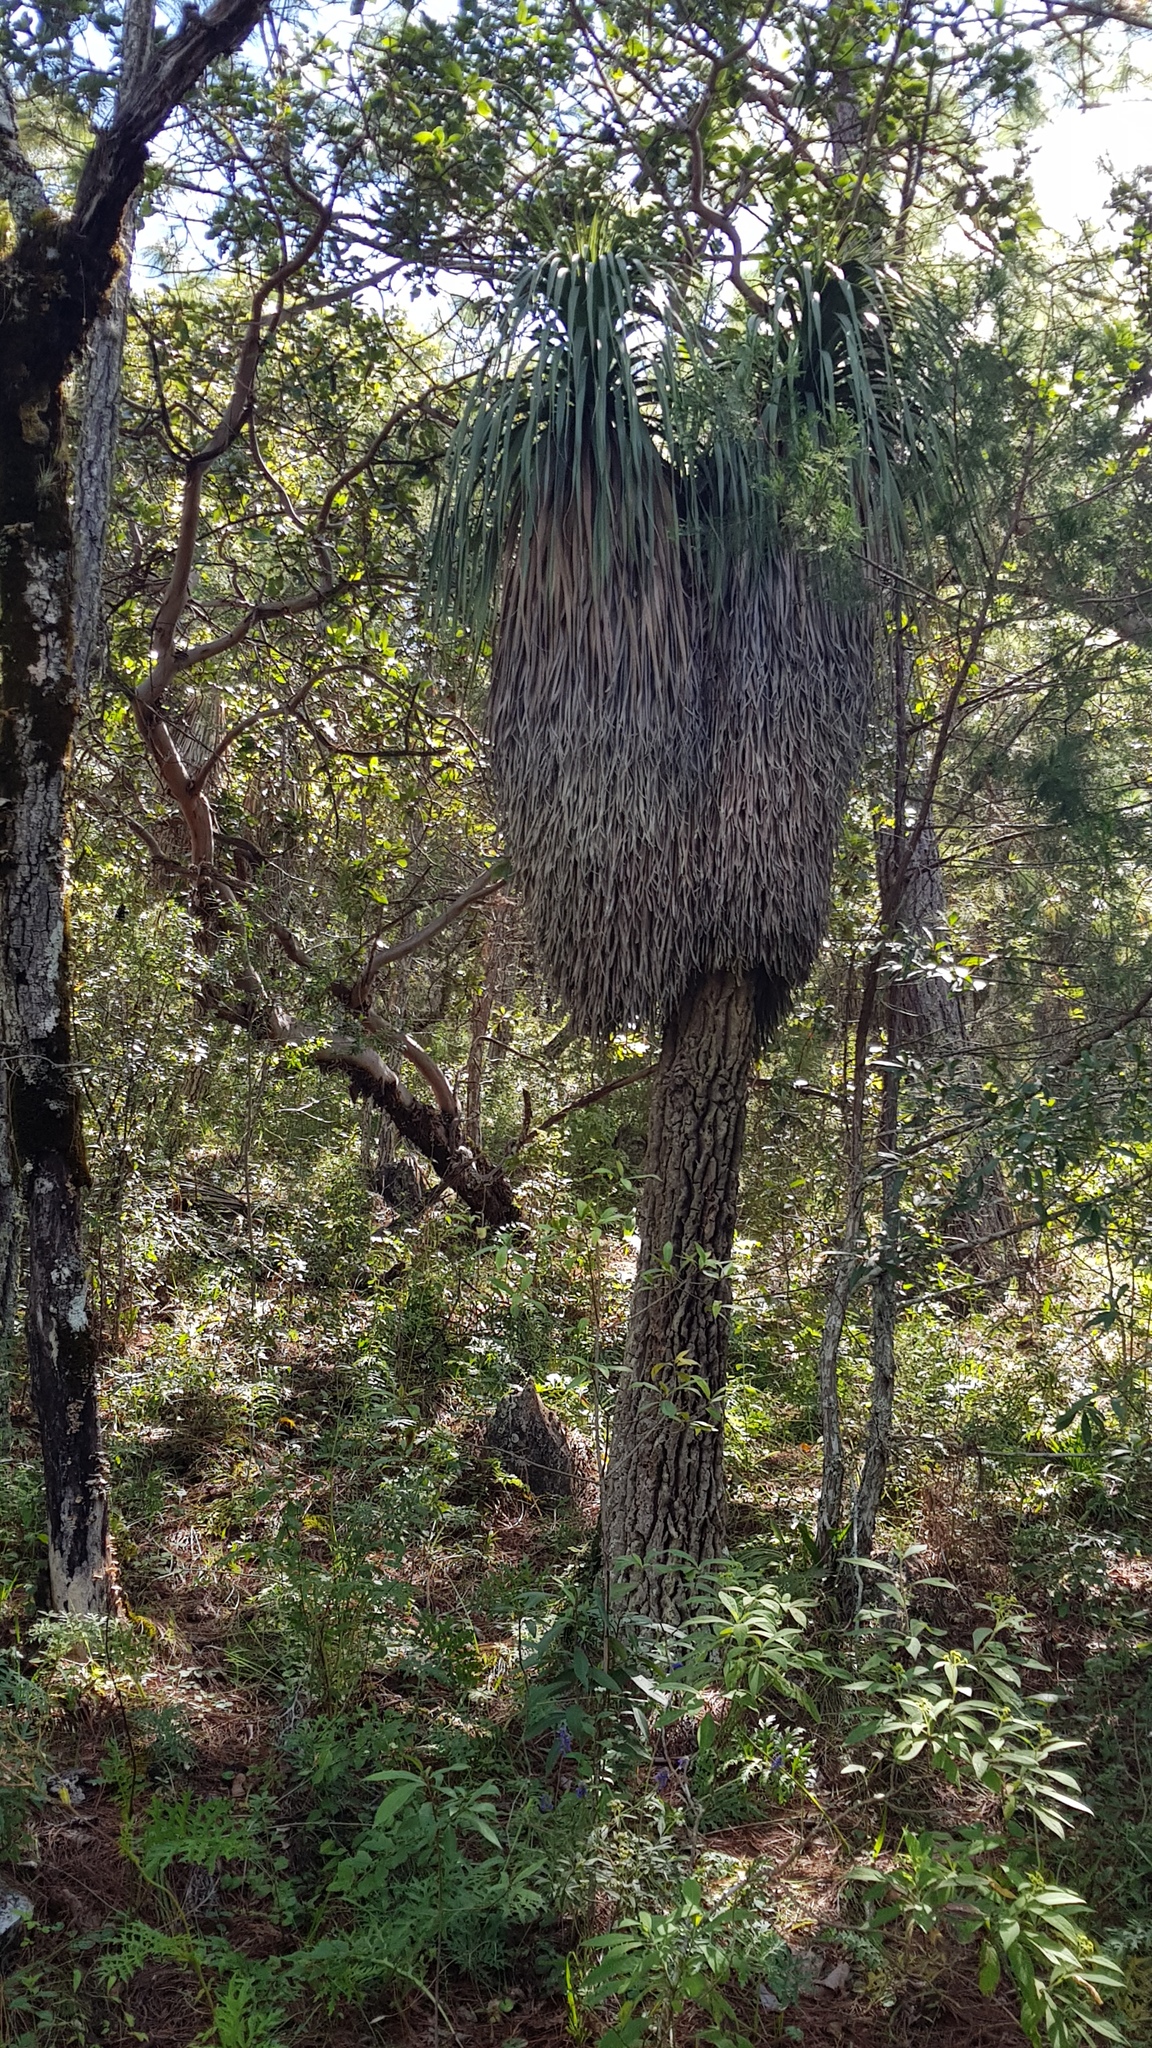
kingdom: Plantae
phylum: Tracheophyta
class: Liliopsida
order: Asparagales
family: Asparagaceae
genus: Nolina
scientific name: Nolina parviflora
